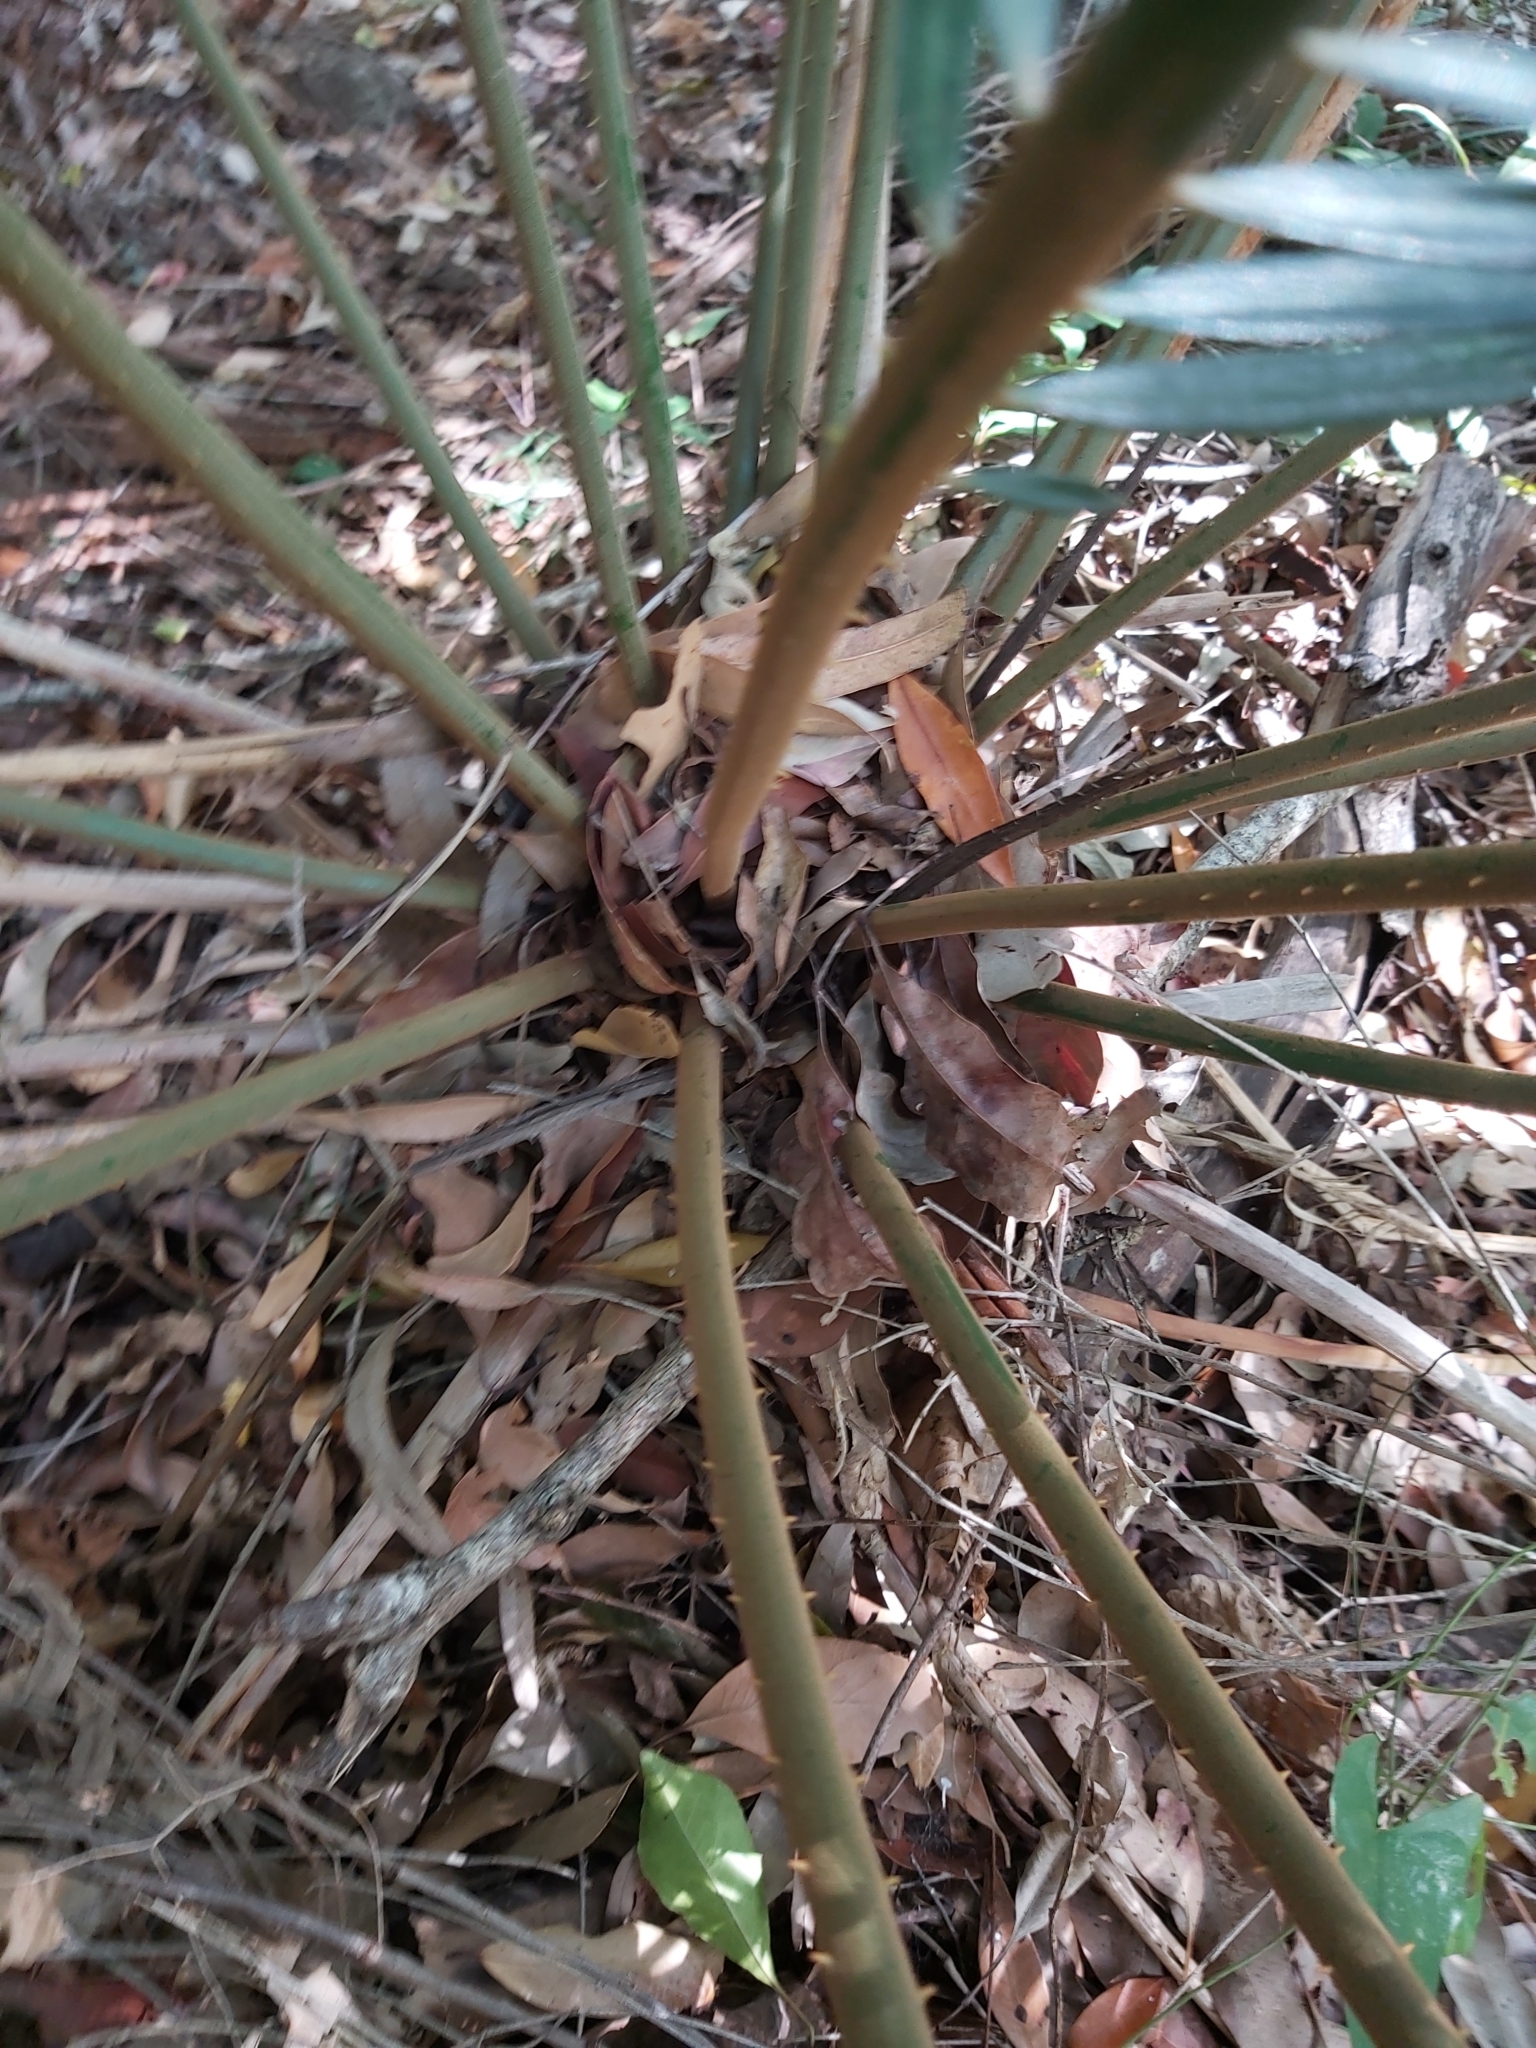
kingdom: Plantae
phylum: Tracheophyta
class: Cycadopsida
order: Cycadales
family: Cycadaceae
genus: Cycas
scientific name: Cycas media
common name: Queensland cycas
